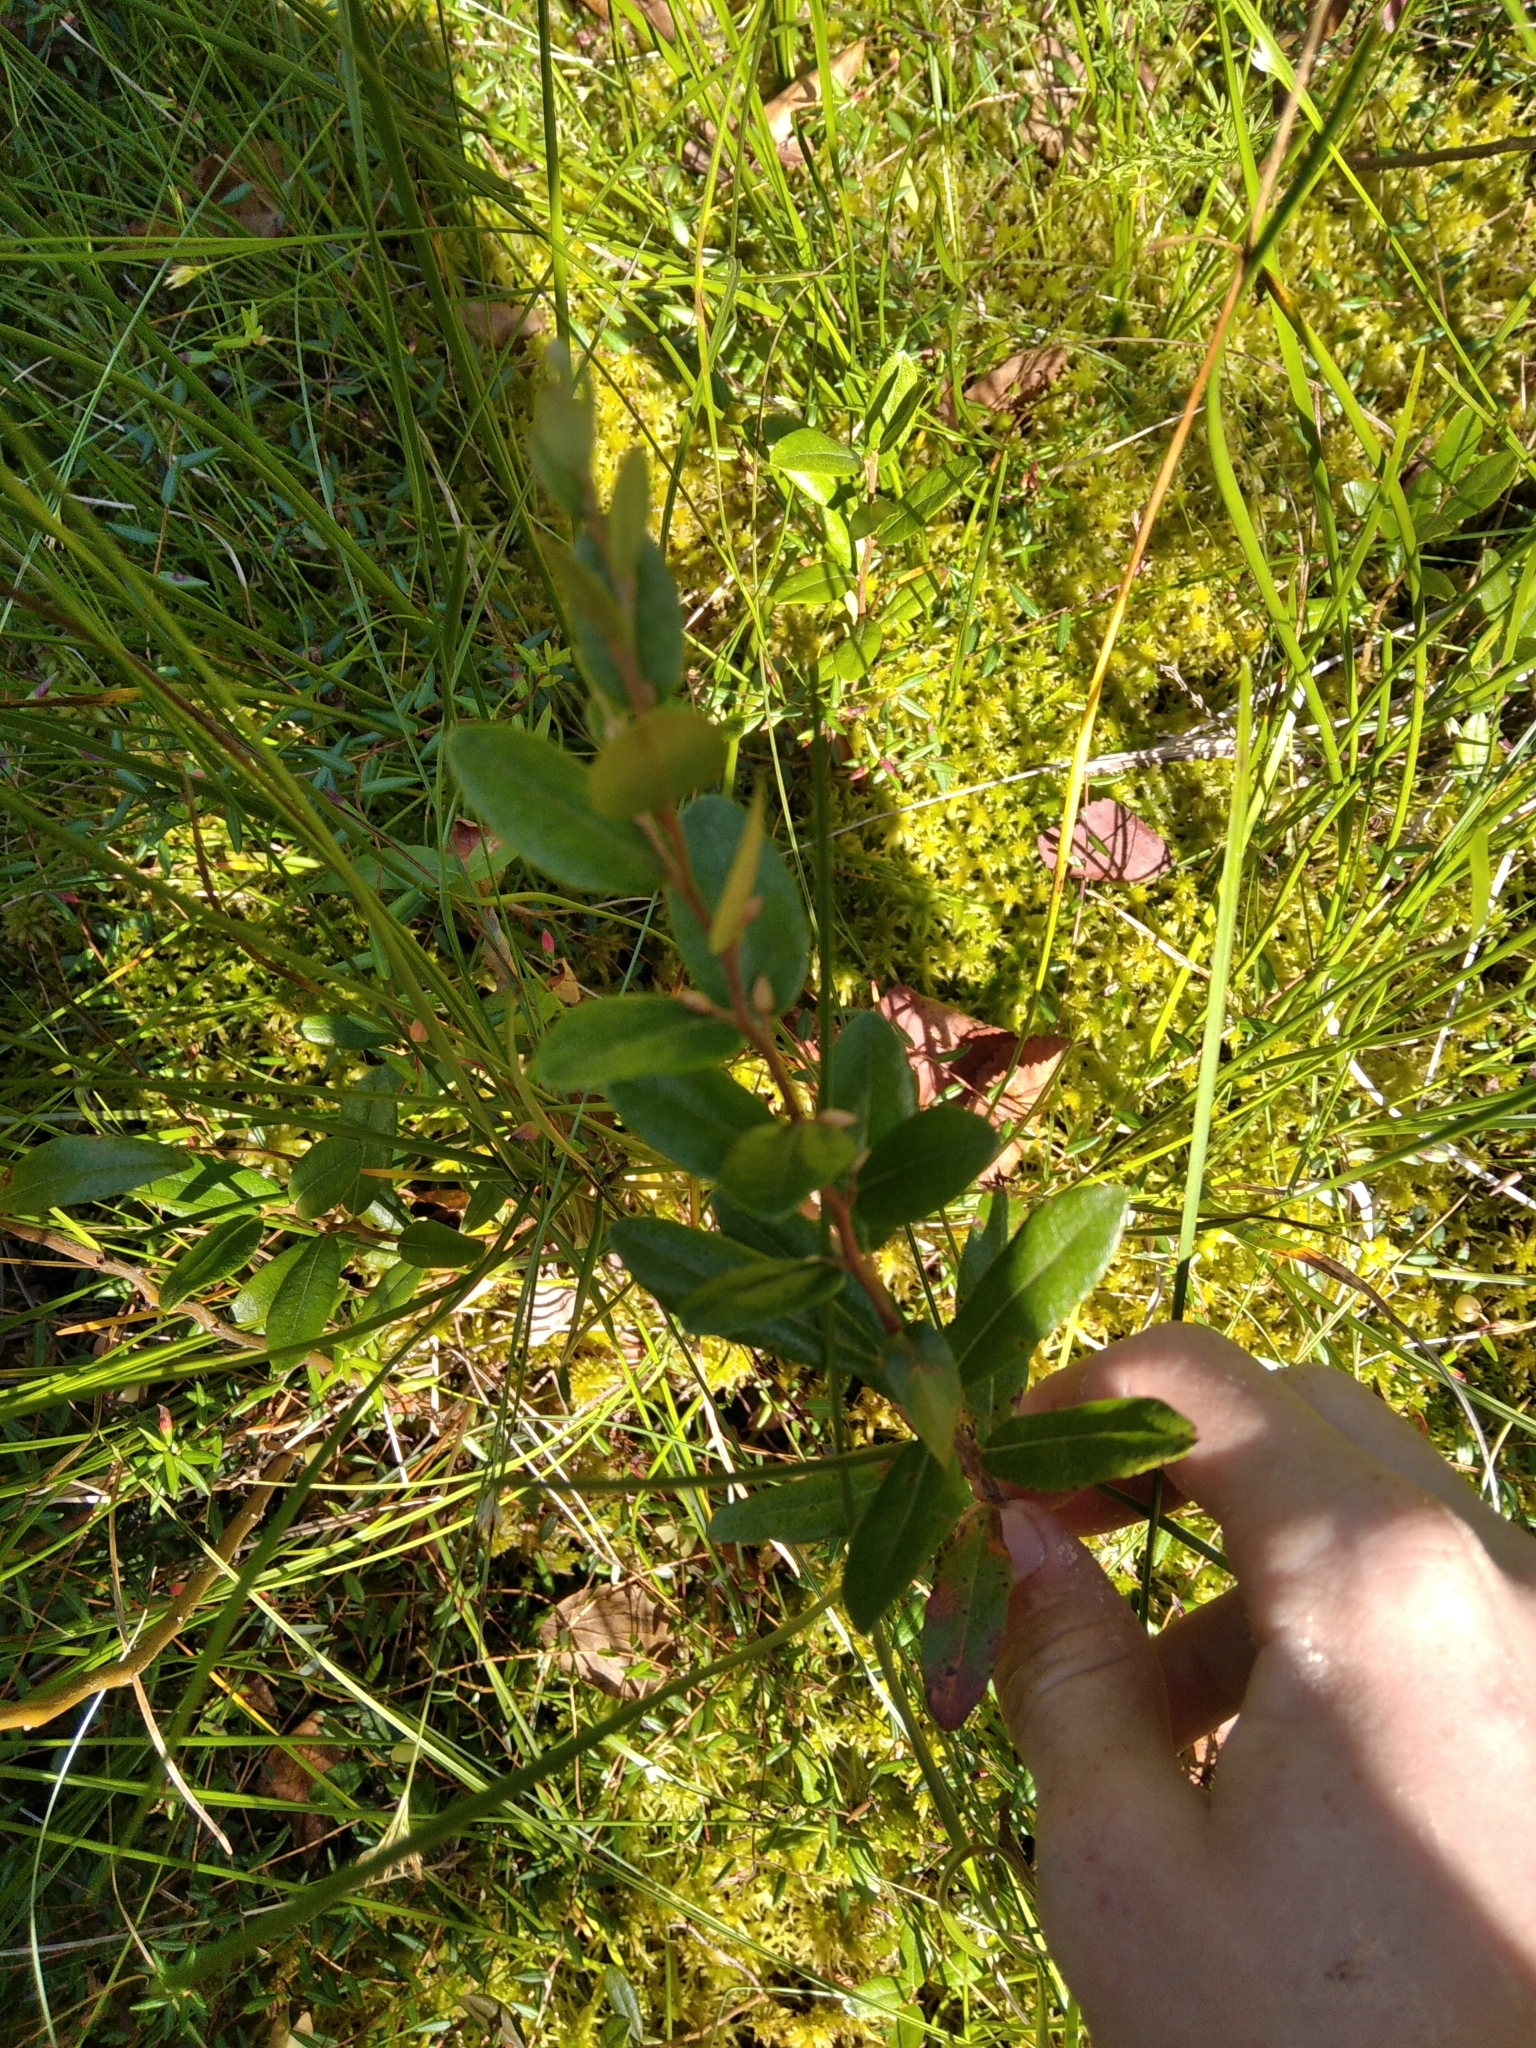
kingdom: Plantae
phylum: Tracheophyta
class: Magnoliopsida
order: Ericales
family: Ericaceae
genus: Chamaedaphne
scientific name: Chamaedaphne calyculata
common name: Leatherleaf
